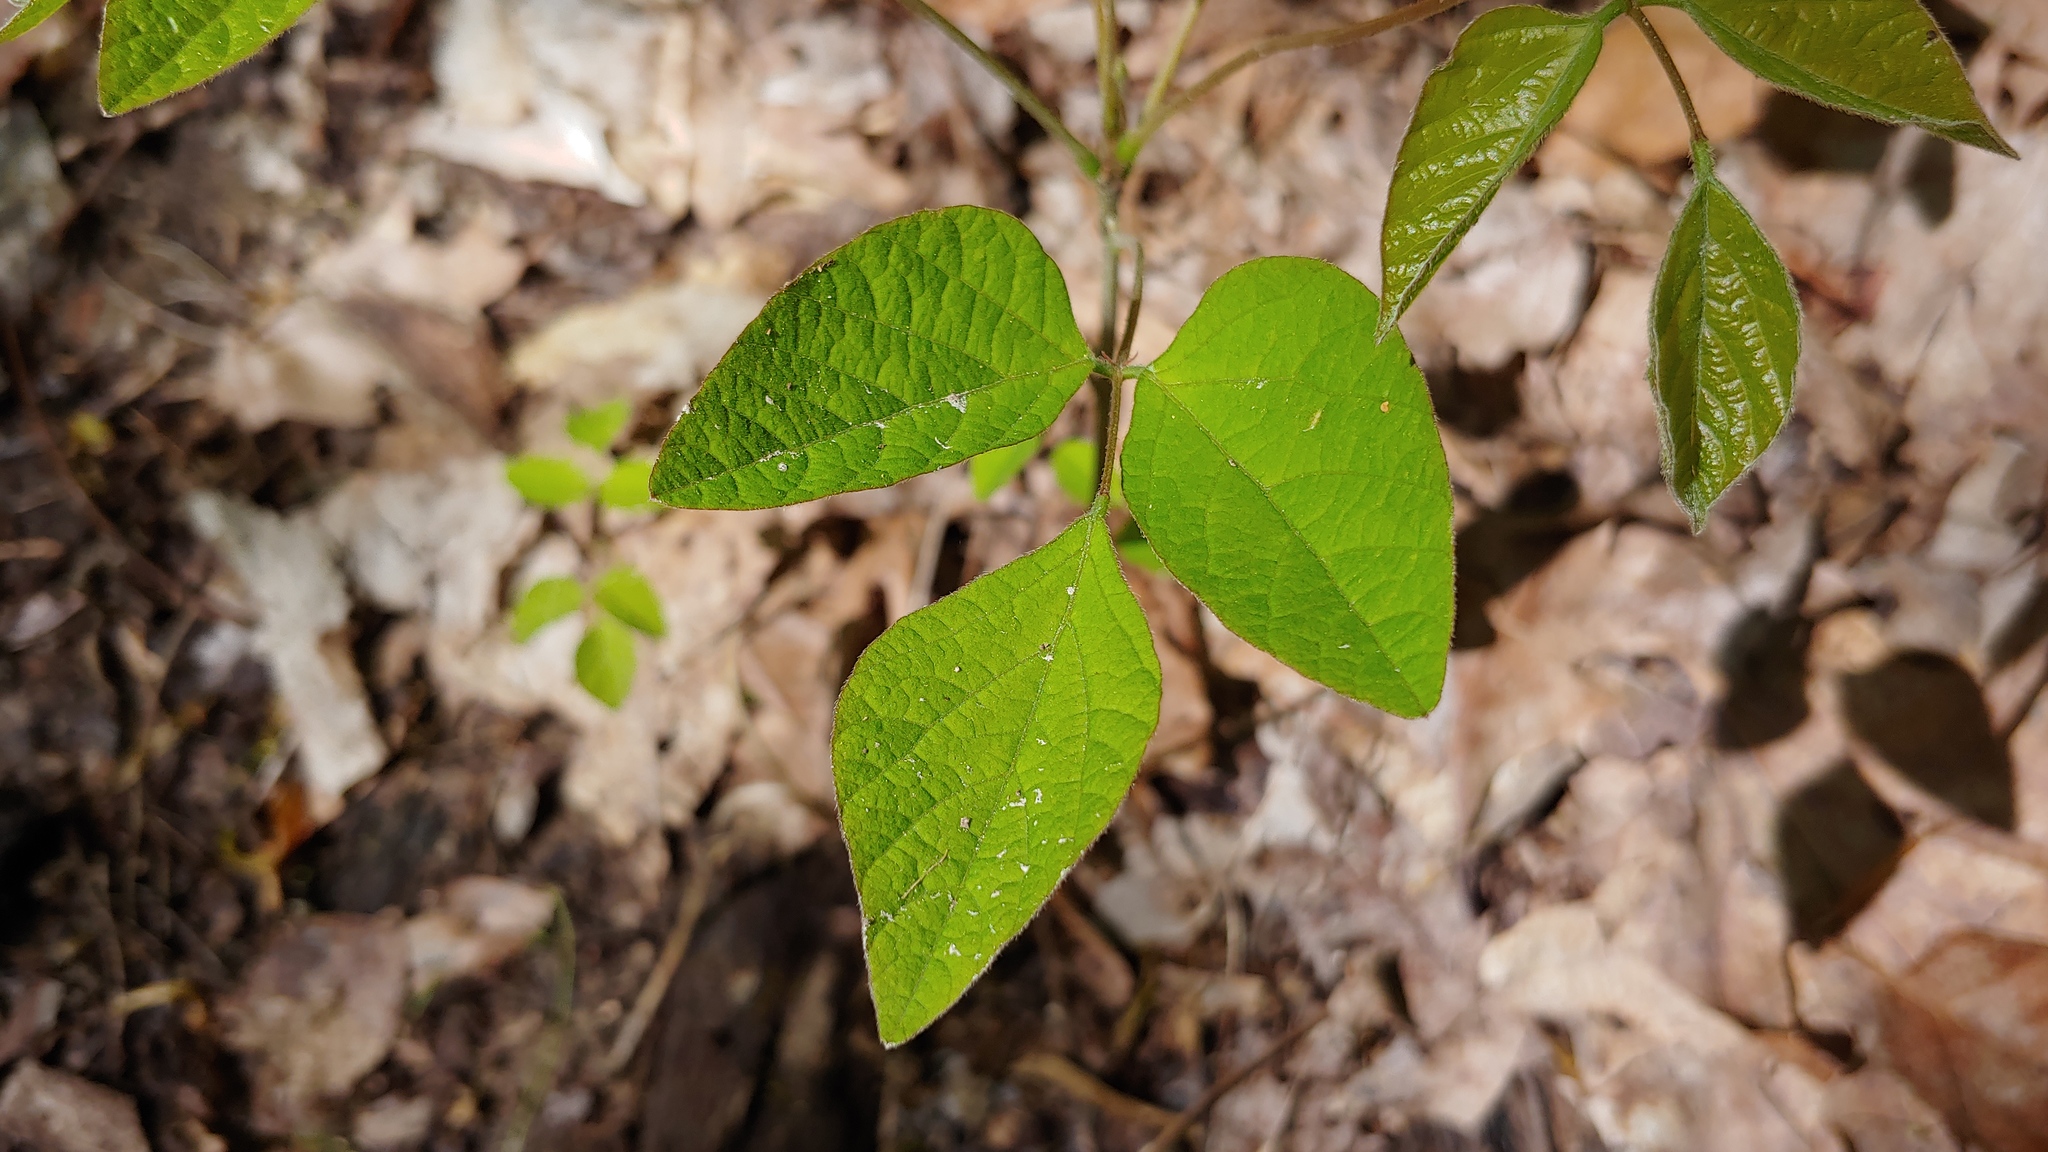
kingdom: Plantae
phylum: Tracheophyta
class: Magnoliopsida
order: Fabales
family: Fabaceae
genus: Hylodesmum
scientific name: Hylodesmum nudiflorum
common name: Bare-stemmed tick-trefoil
